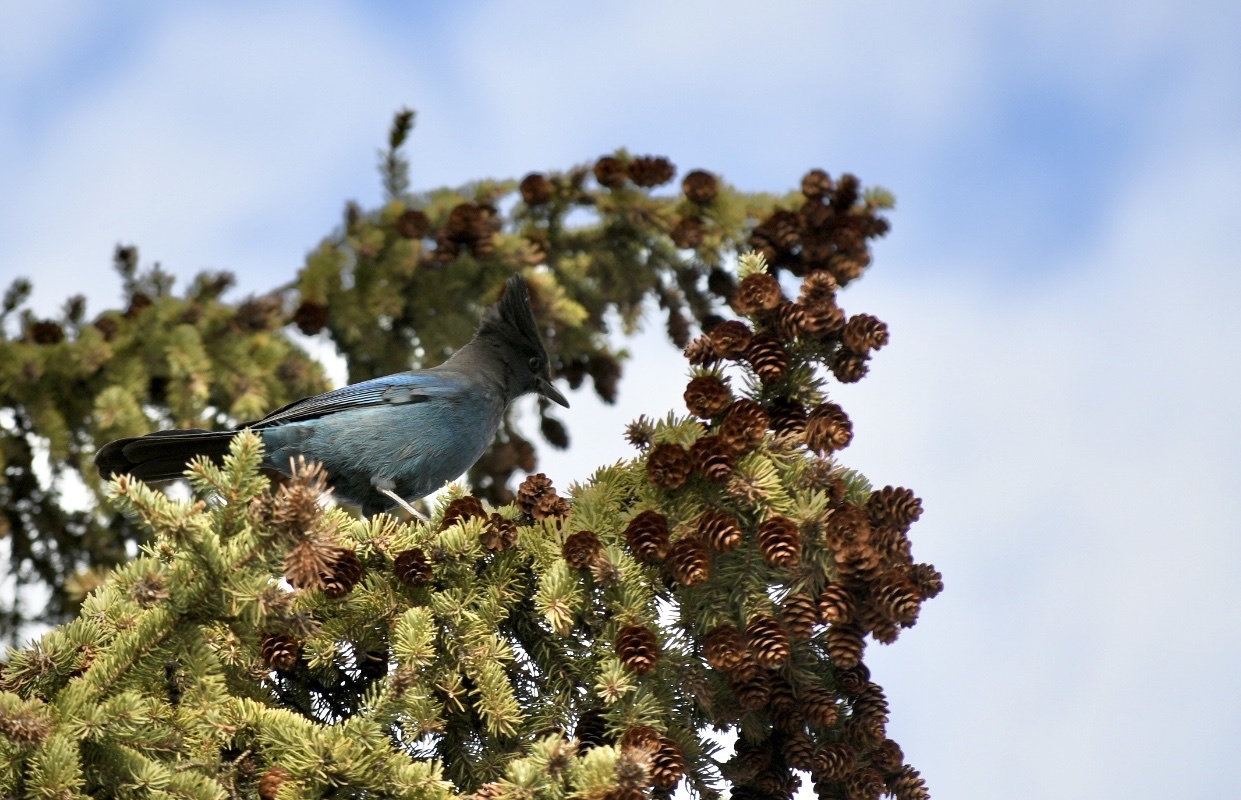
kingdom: Animalia
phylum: Chordata
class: Aves
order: Passeriformes
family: Corvidae
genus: Cyanocitta
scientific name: Cyanocitta stelleri
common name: Steller's jay
